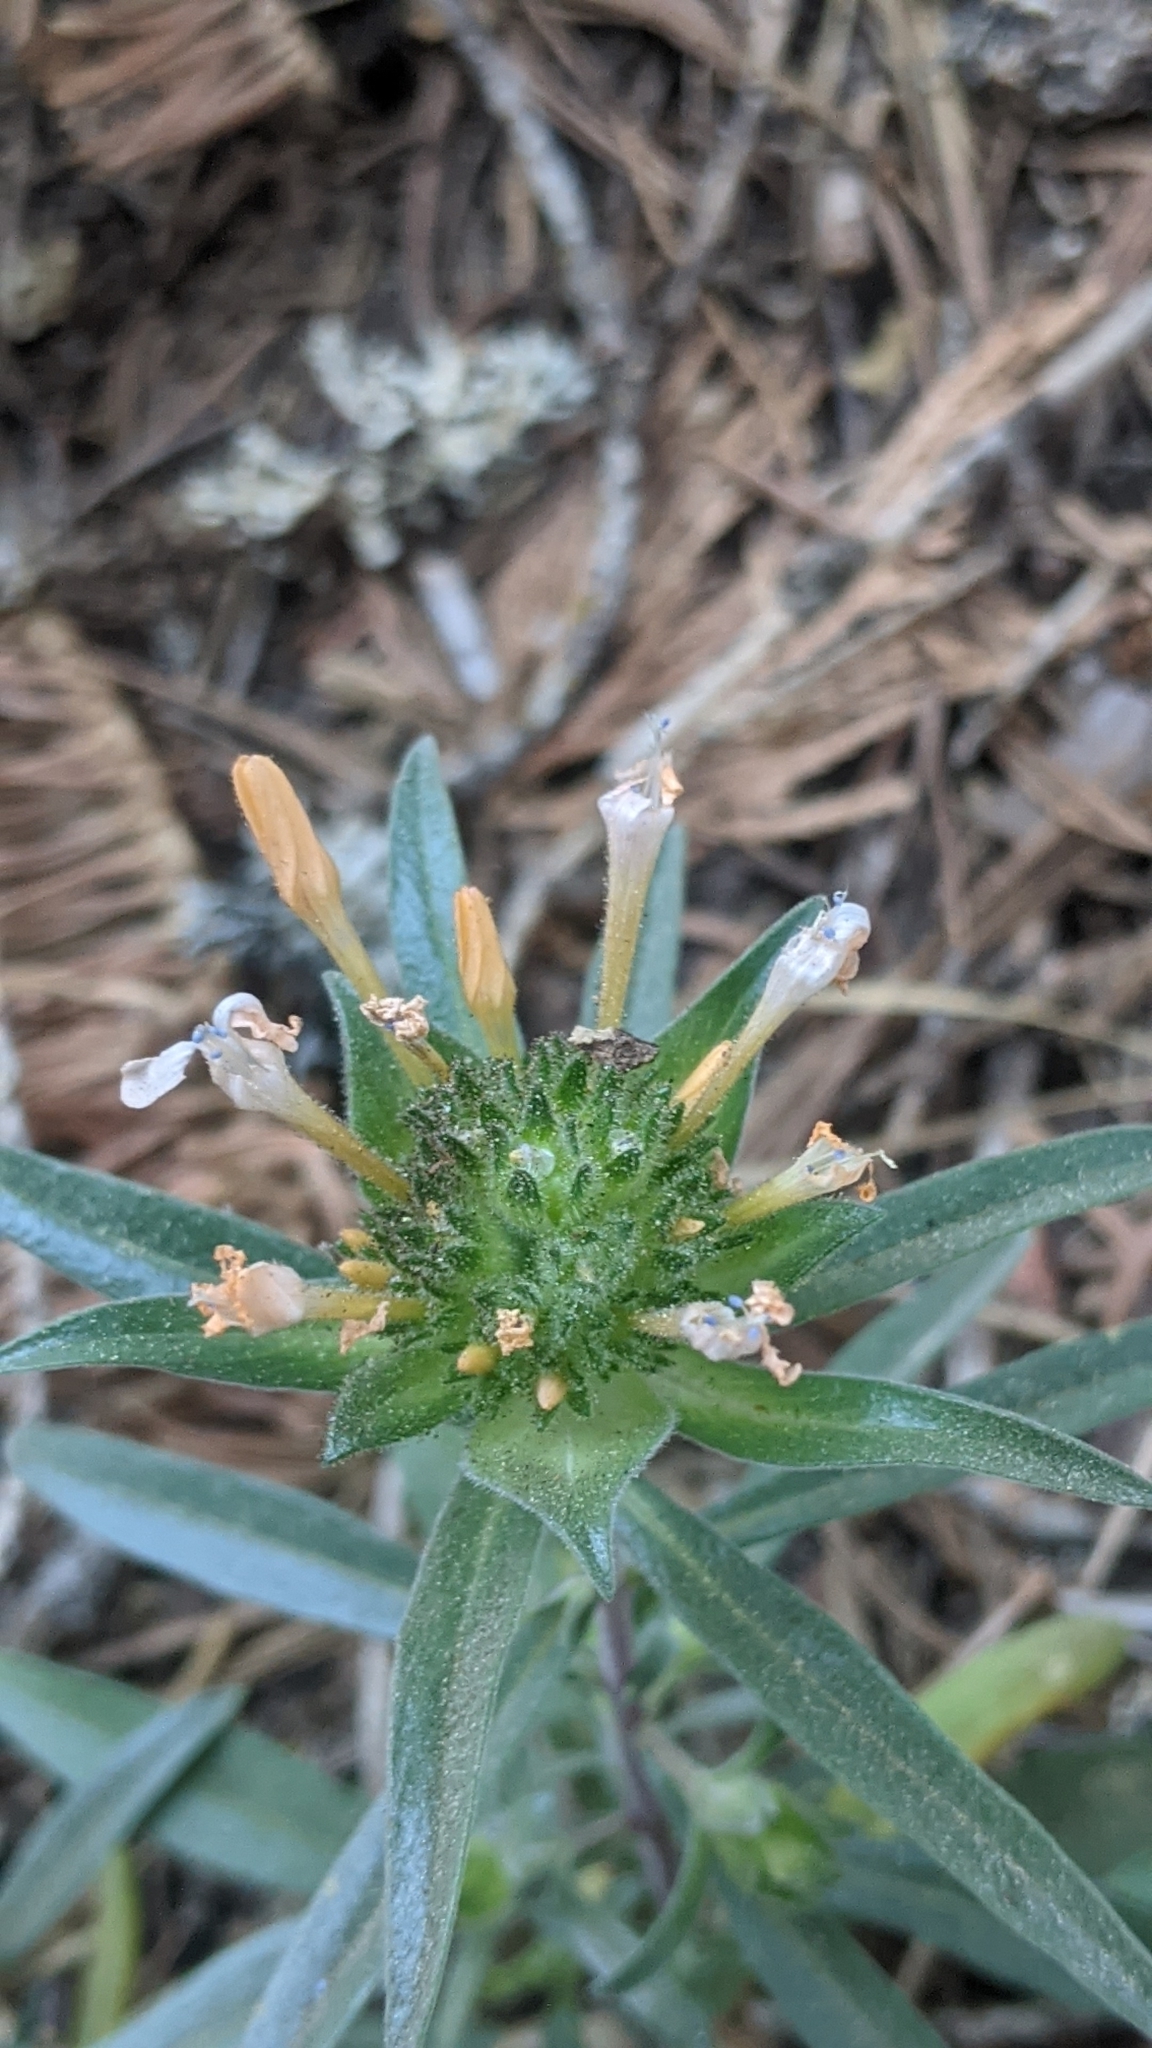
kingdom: Plantae
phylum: Tracheophyta
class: Magnoliopsida
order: Ericales
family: Polemoniaceae
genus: Collomia
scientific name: Collomia grandiflora
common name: California strawflower
